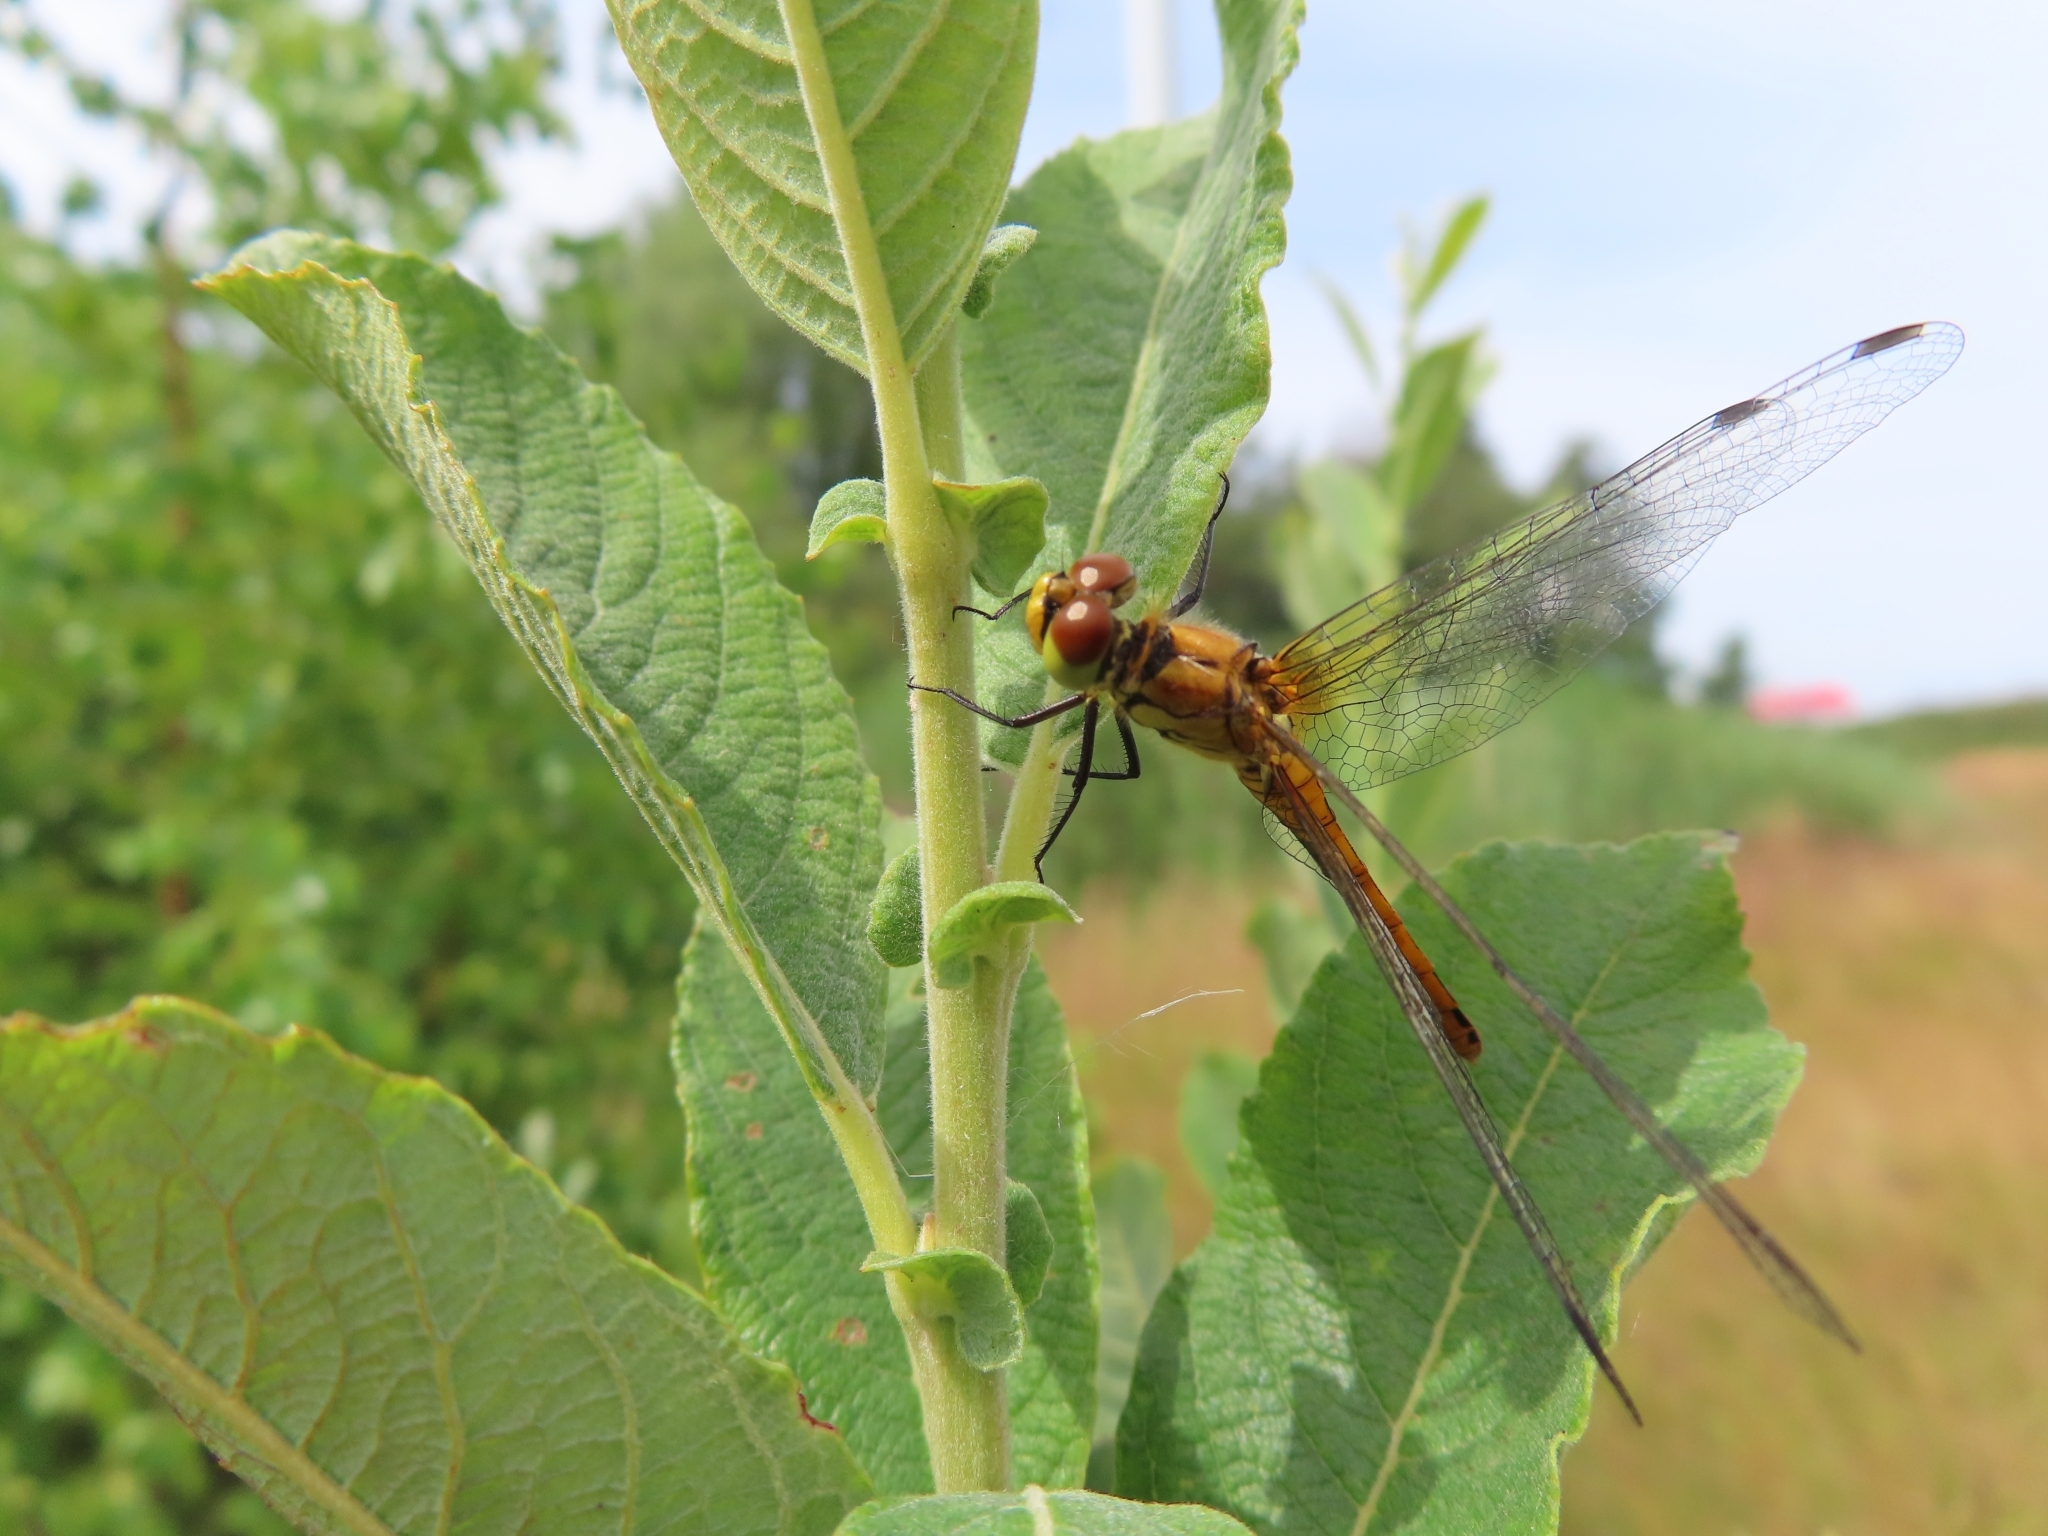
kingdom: Animalia
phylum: Arthropoda
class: Insecta
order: Odonata
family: Libellulidae
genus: Sympetrum
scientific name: Sympetrum sanguineum
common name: Ruddy darter
